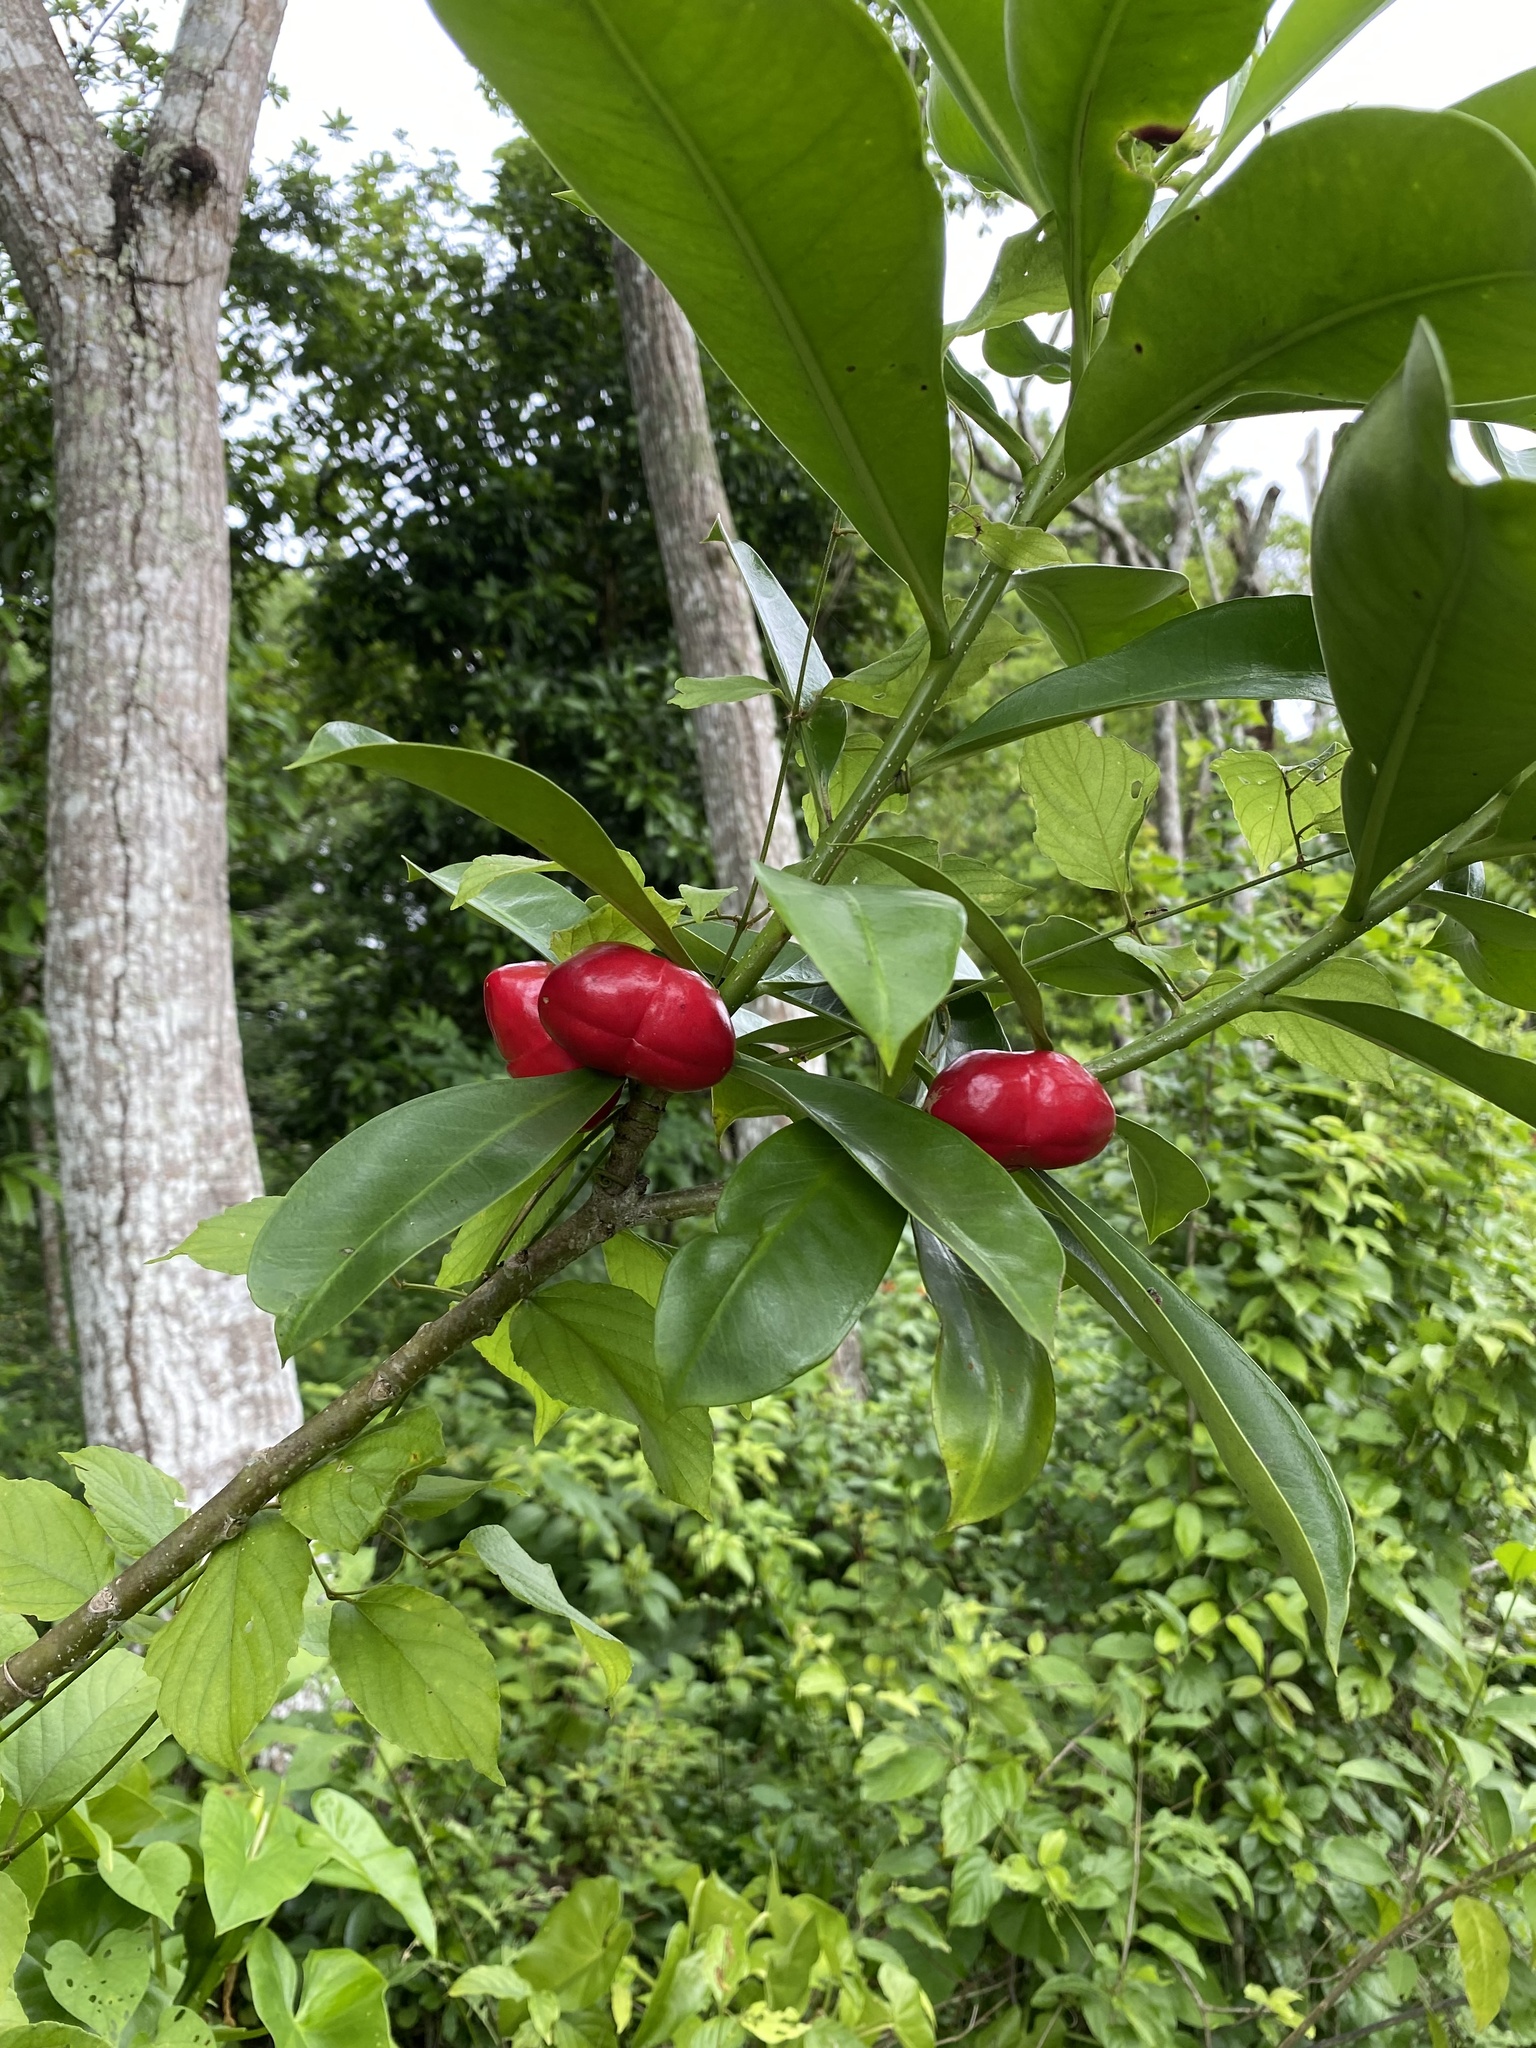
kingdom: Plantae
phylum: Tracheophyta
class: Magnoliopsida
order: Gentianales
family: Apocynaceae
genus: Thevetia
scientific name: Thevetia ahouai
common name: Broadleaf thevetia
